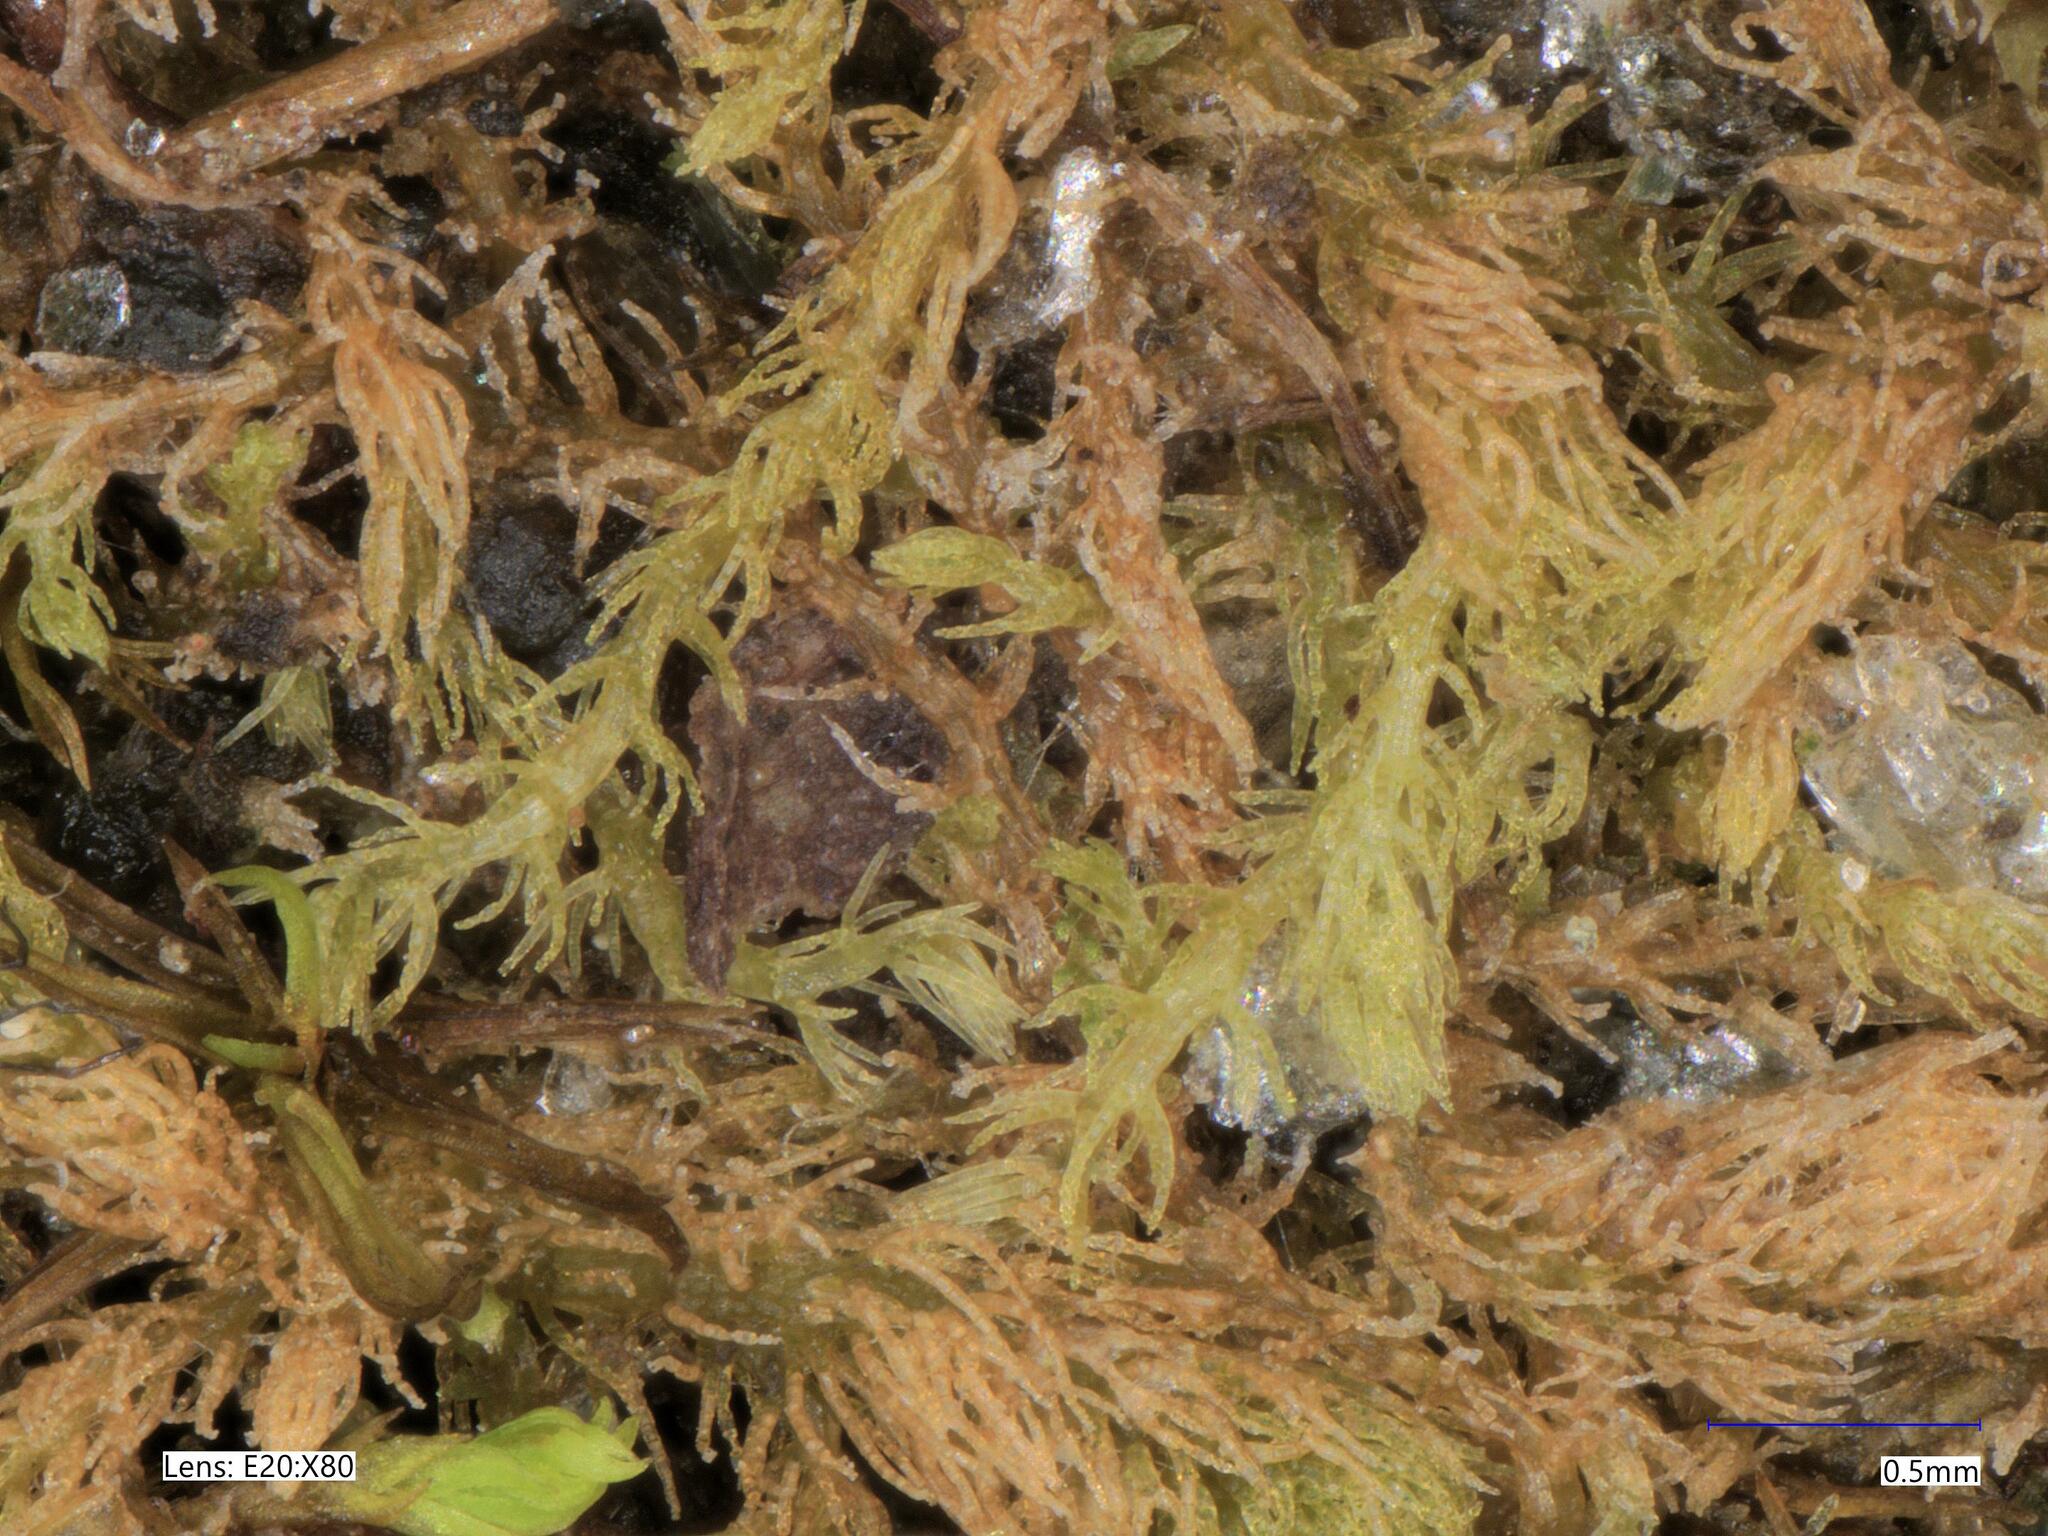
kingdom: Plantae
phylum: Marchantiophyta
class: Jungermanniopsida
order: Jungermanniales
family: Blepharostomataceae
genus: Blepharostoma
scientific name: Blepharostoma trichophyllum
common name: Hairy threadwort
